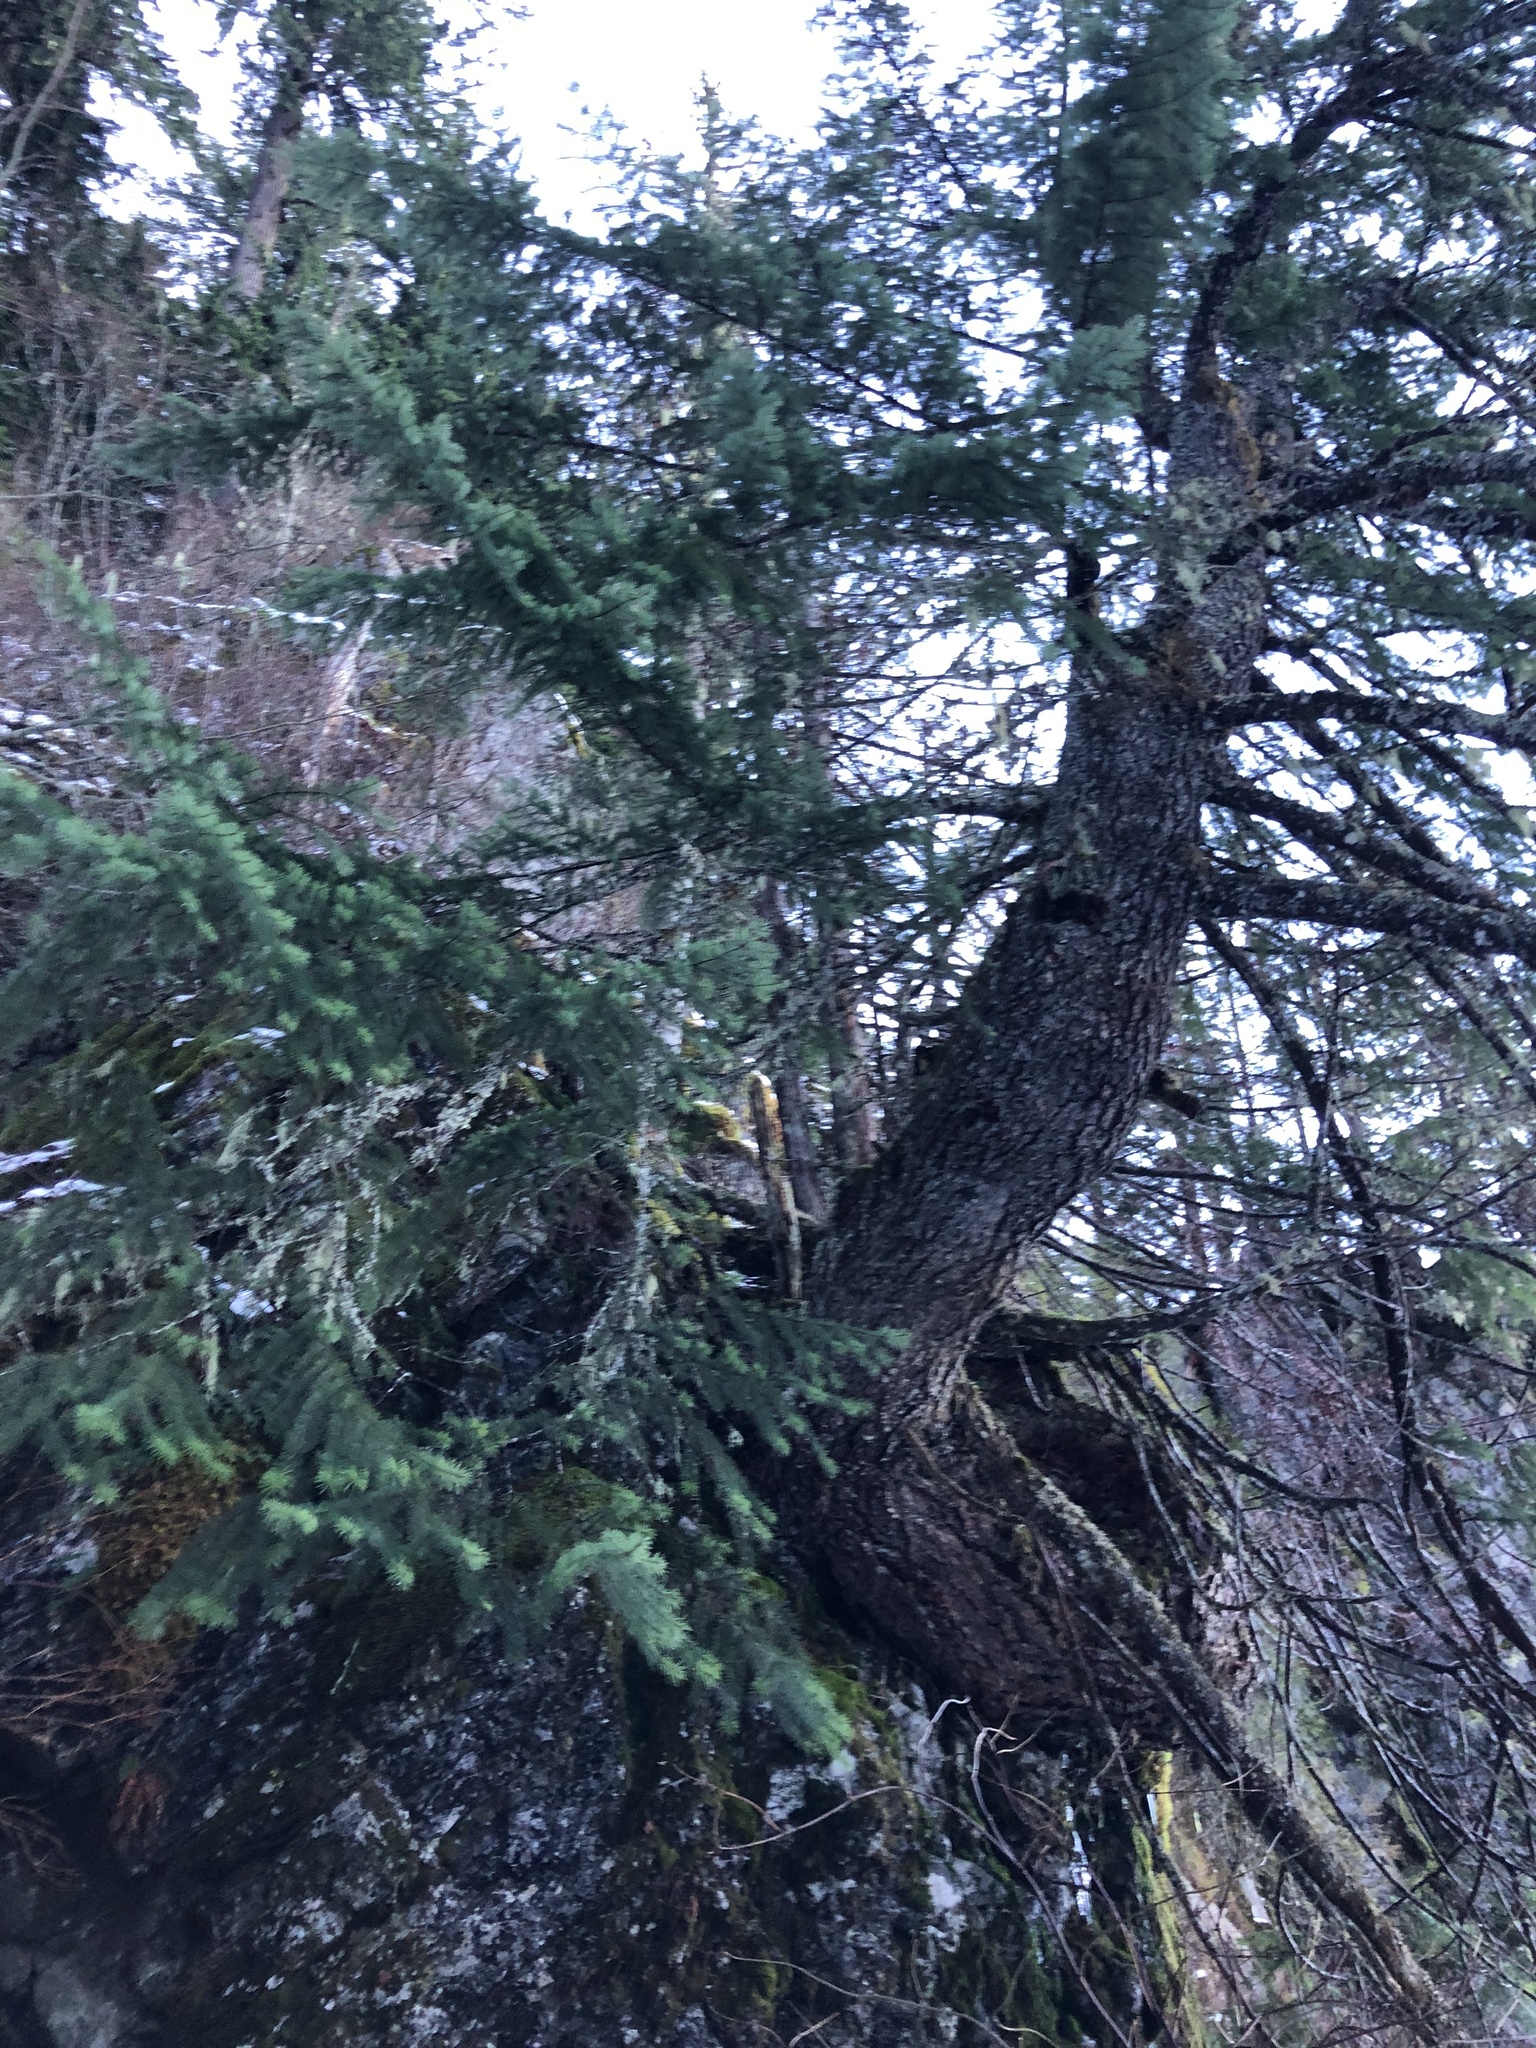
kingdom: Plantae
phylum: Tracheophyta
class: Pinopsida
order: Pinales
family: Pinaceae
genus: Pseudotsuga
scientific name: Pseudotsuga menziesii
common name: Douglas fir
